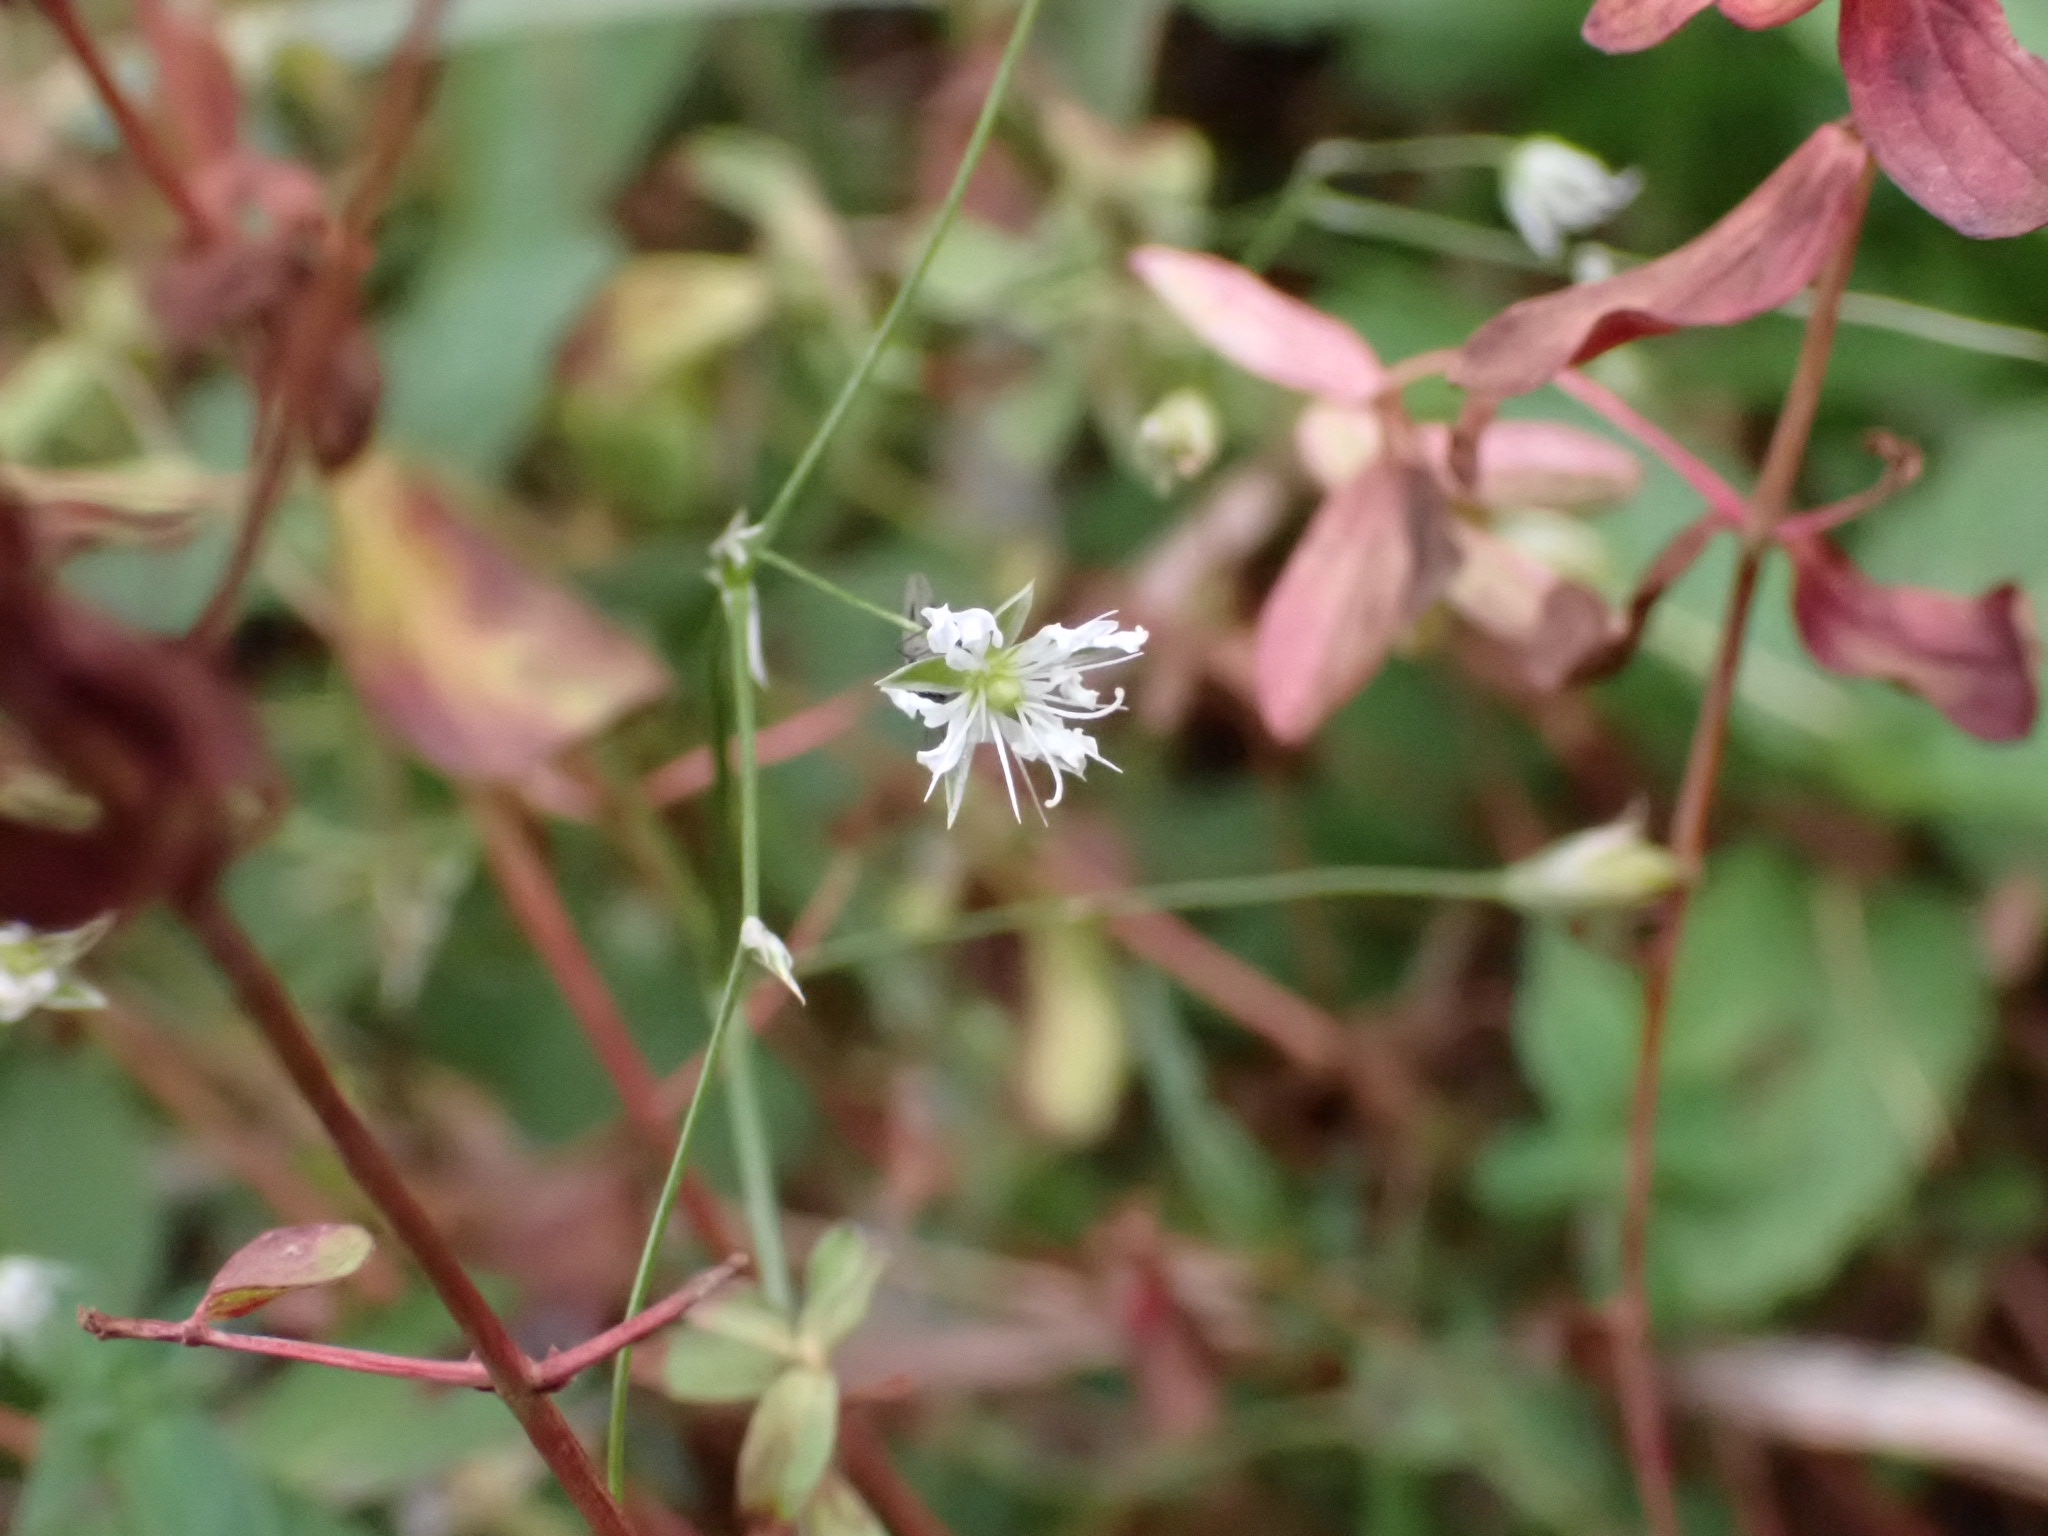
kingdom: Plantae
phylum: Tracheophyta
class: Magnoliopsida
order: Caryophyllales
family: Caryophyllaceae
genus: Stellaria
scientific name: Stellaria graminea
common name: Grass-like starwort
